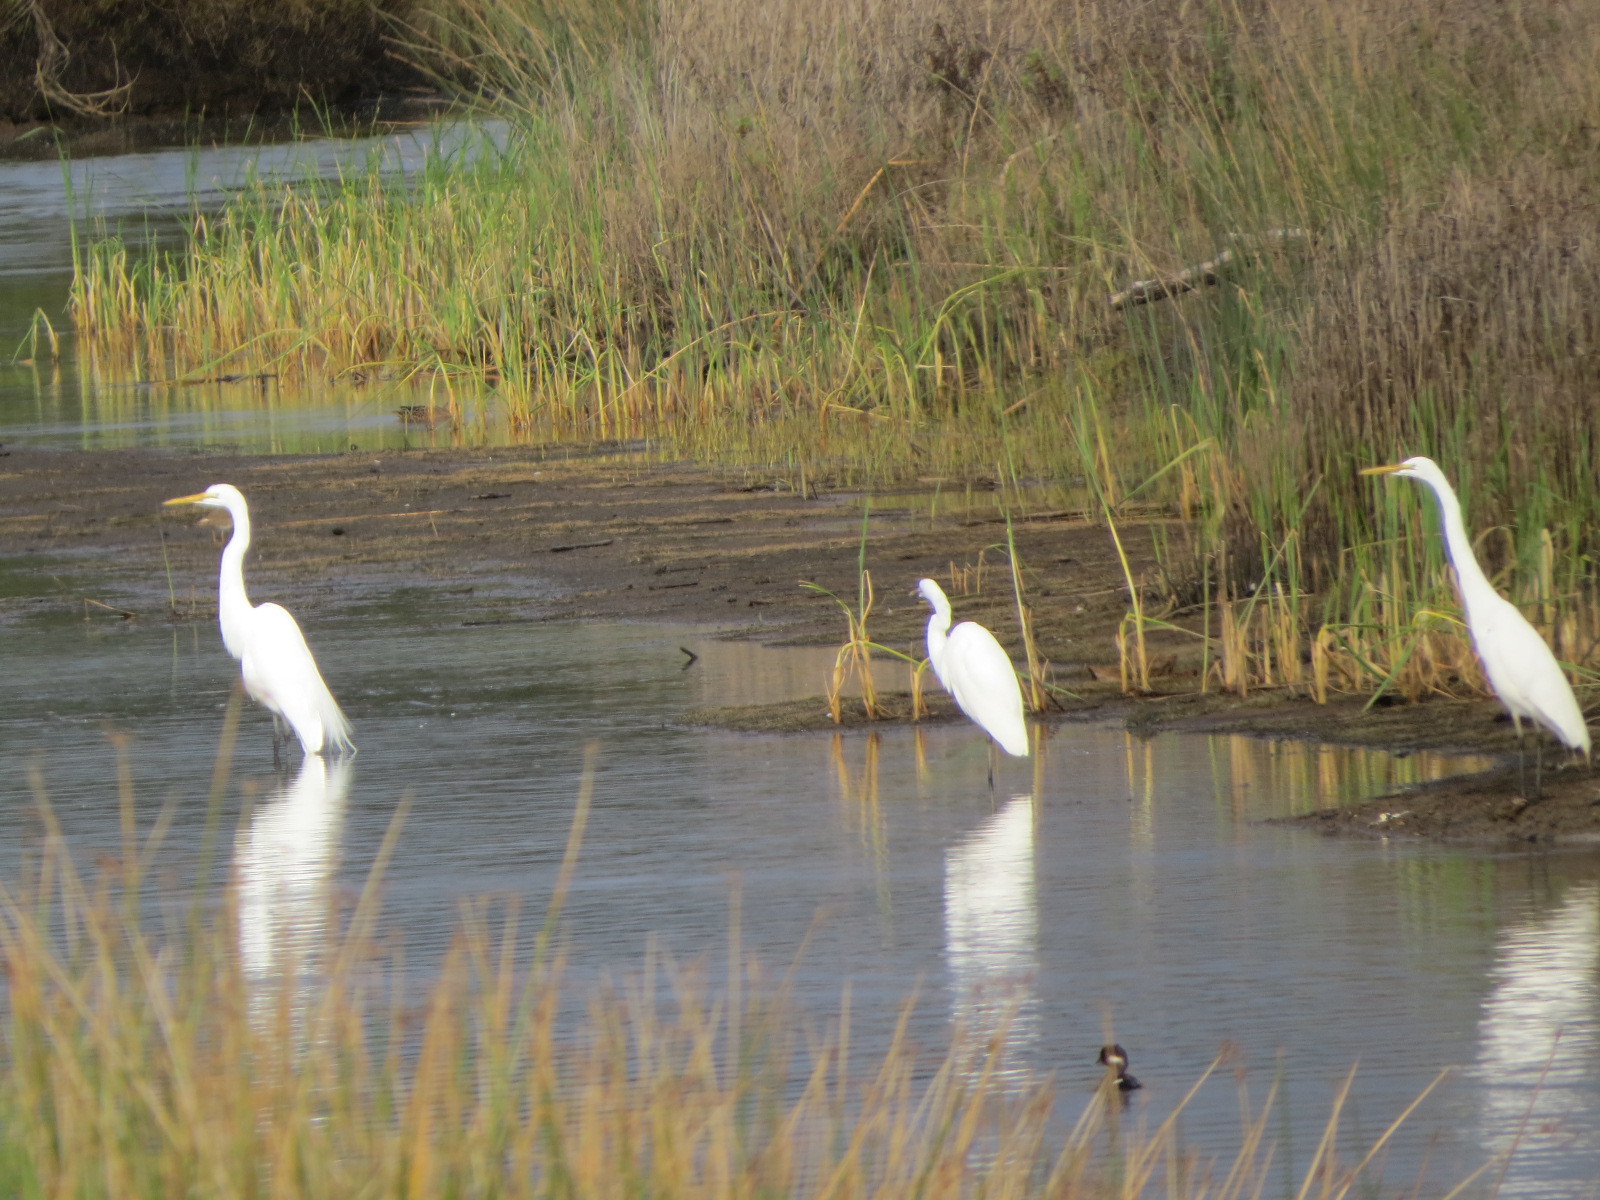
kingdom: Animalia
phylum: Chordata
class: Aves
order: Pelecaniformes
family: Ardeidae
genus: Ardea
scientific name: Ardea alba
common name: Great egret
